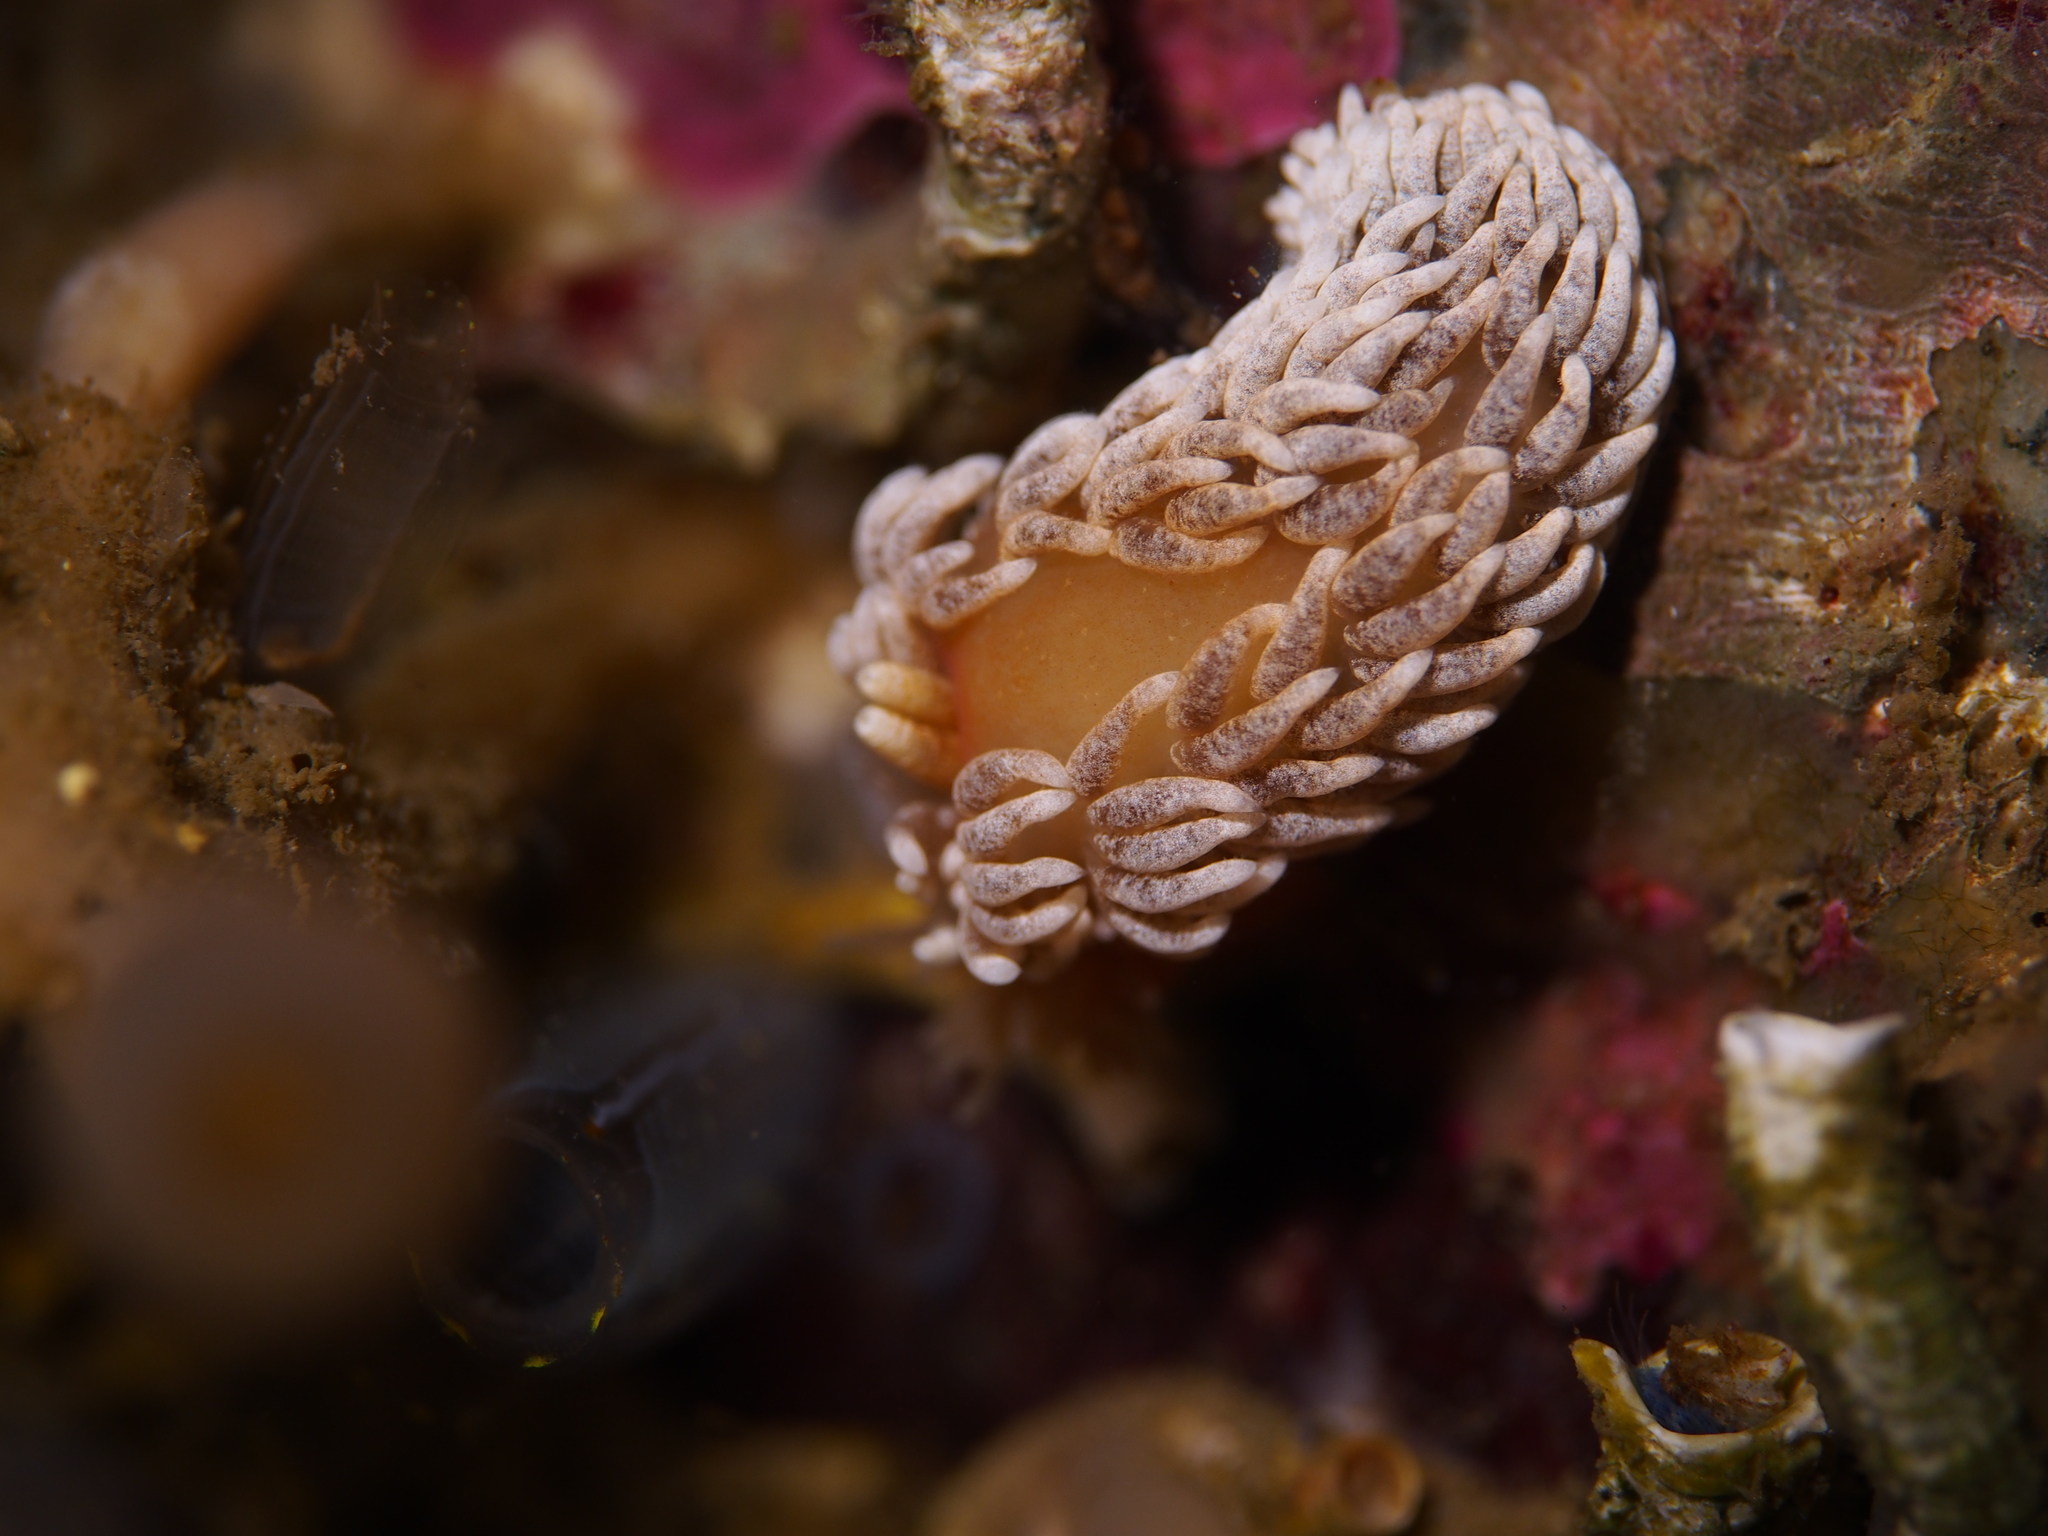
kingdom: Animalia
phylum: Mollusca
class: Gastropoda
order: Nudibranchia
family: Aeolidiidae
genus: Aeolidiella
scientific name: Aeolidiella glauca
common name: Orange-brown aeolid
